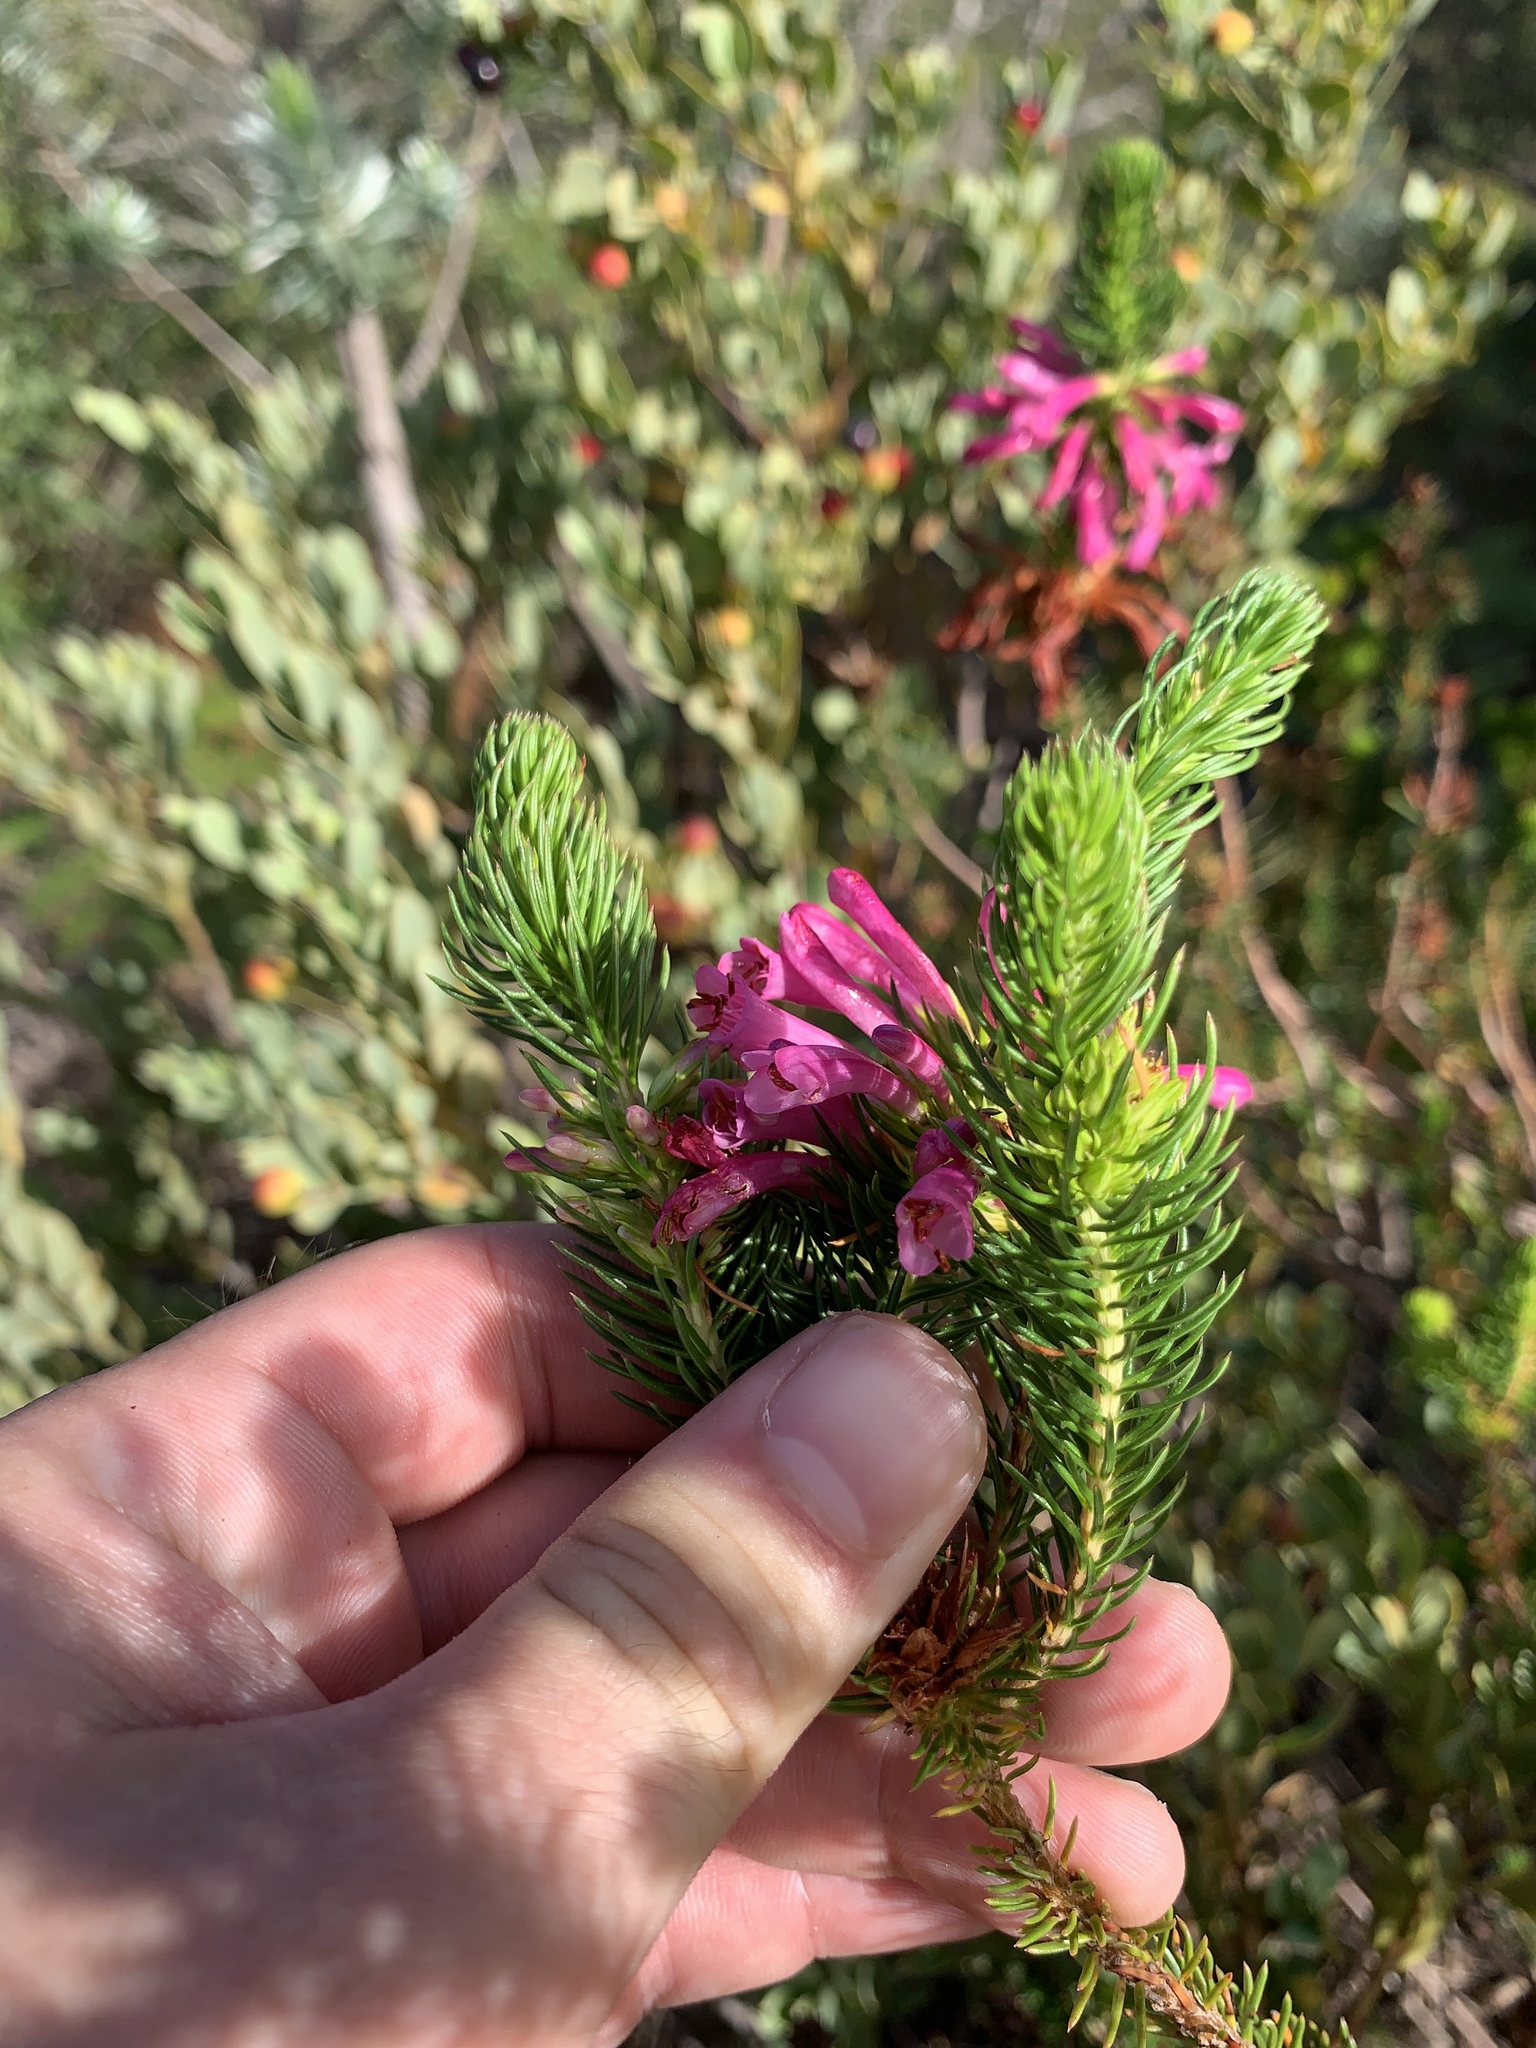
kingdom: Plantae
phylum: Tracheophyta
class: Magnoliopsida
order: Ericales
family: Ericaceae
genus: Erica
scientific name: Erica abietina
